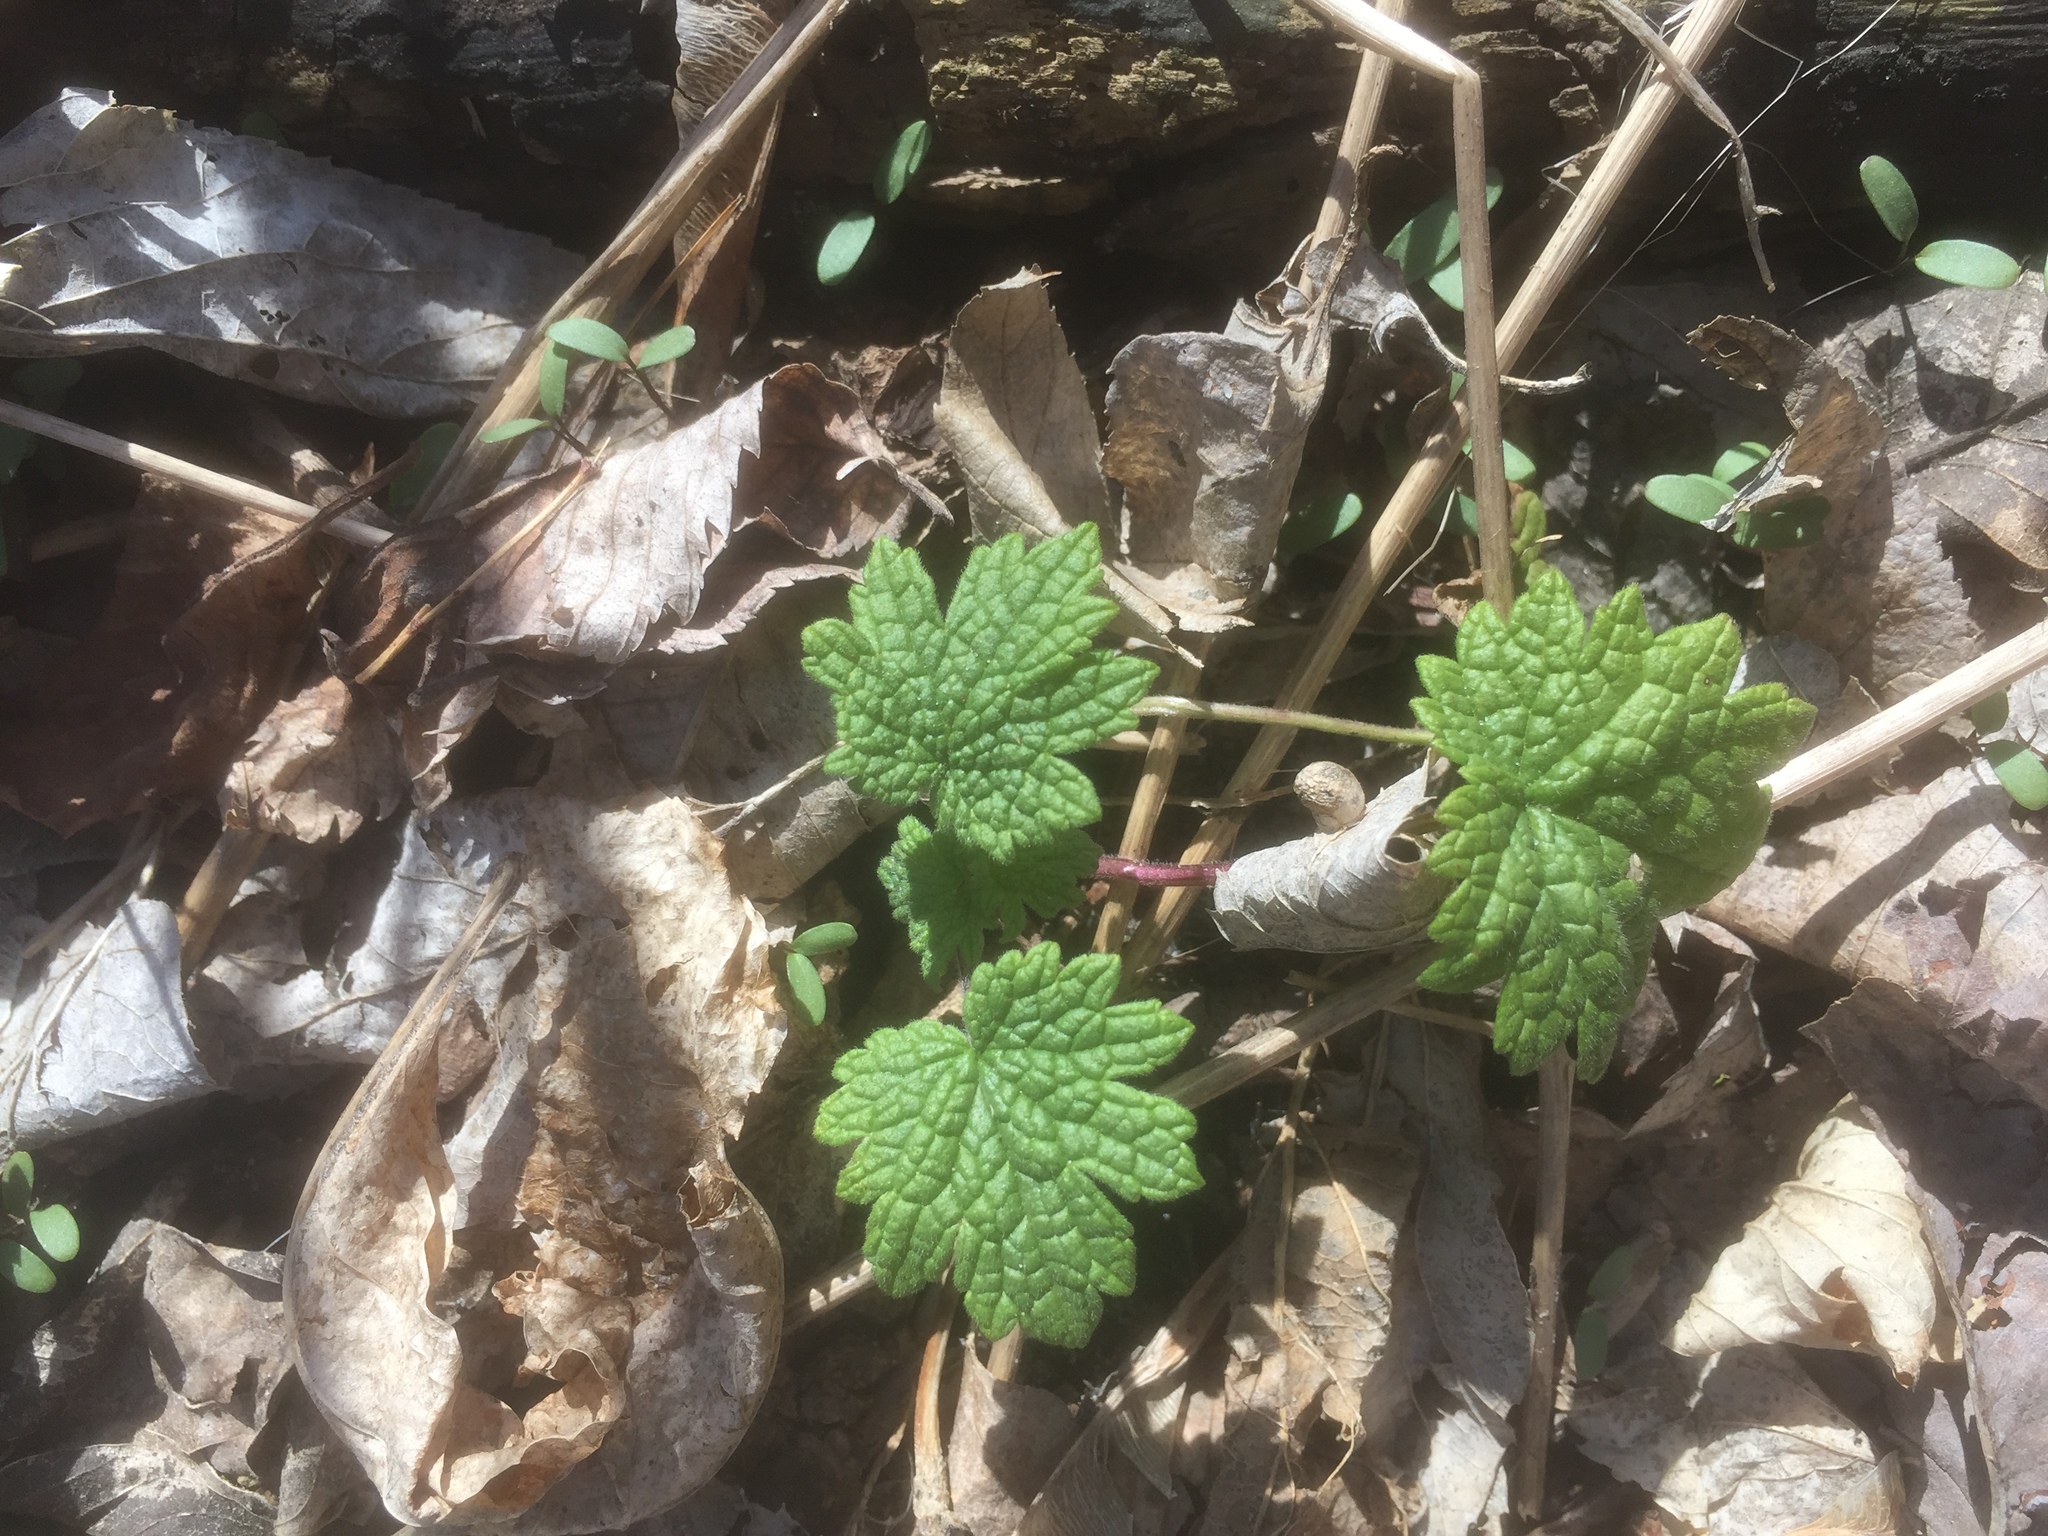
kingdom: Plantae
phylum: Tracheophyta
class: Magnoliopsida
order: Lamiales
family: Lamiaceae
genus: Leonurus
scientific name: Leonurus cardiaca
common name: Motherwort
